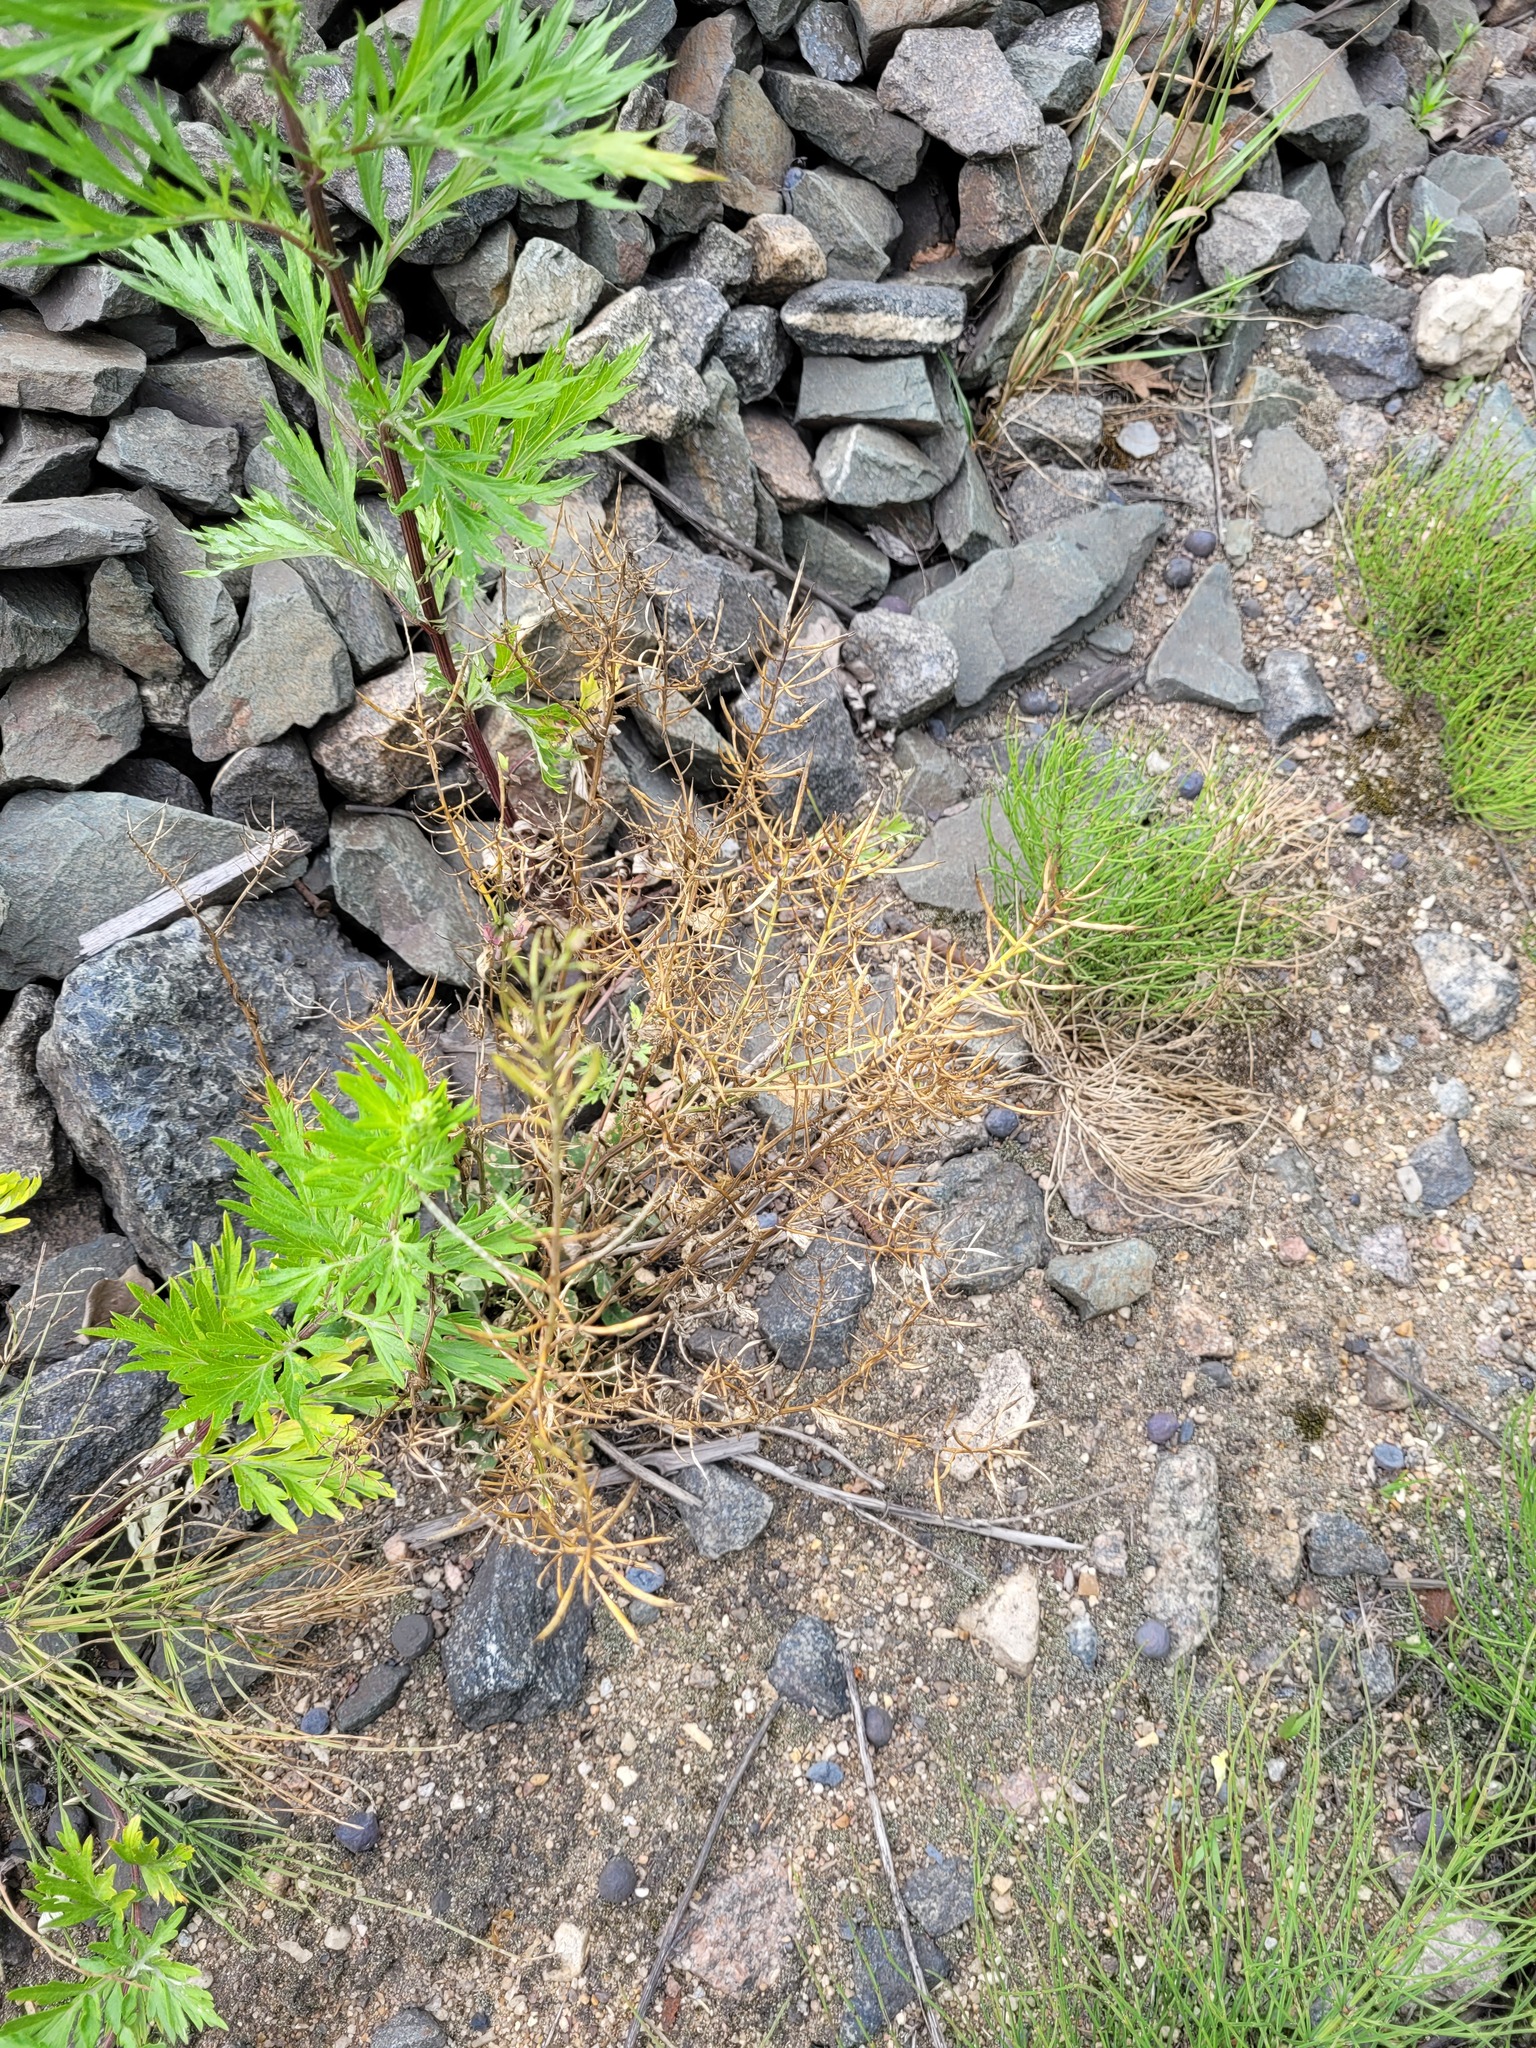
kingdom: Plantae
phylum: Tracheophyta
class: Magnoliopsida
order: Brassicales
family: Brassicaceae
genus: Barbarea
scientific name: Barbarea vulgaris
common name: Cressy-greens
